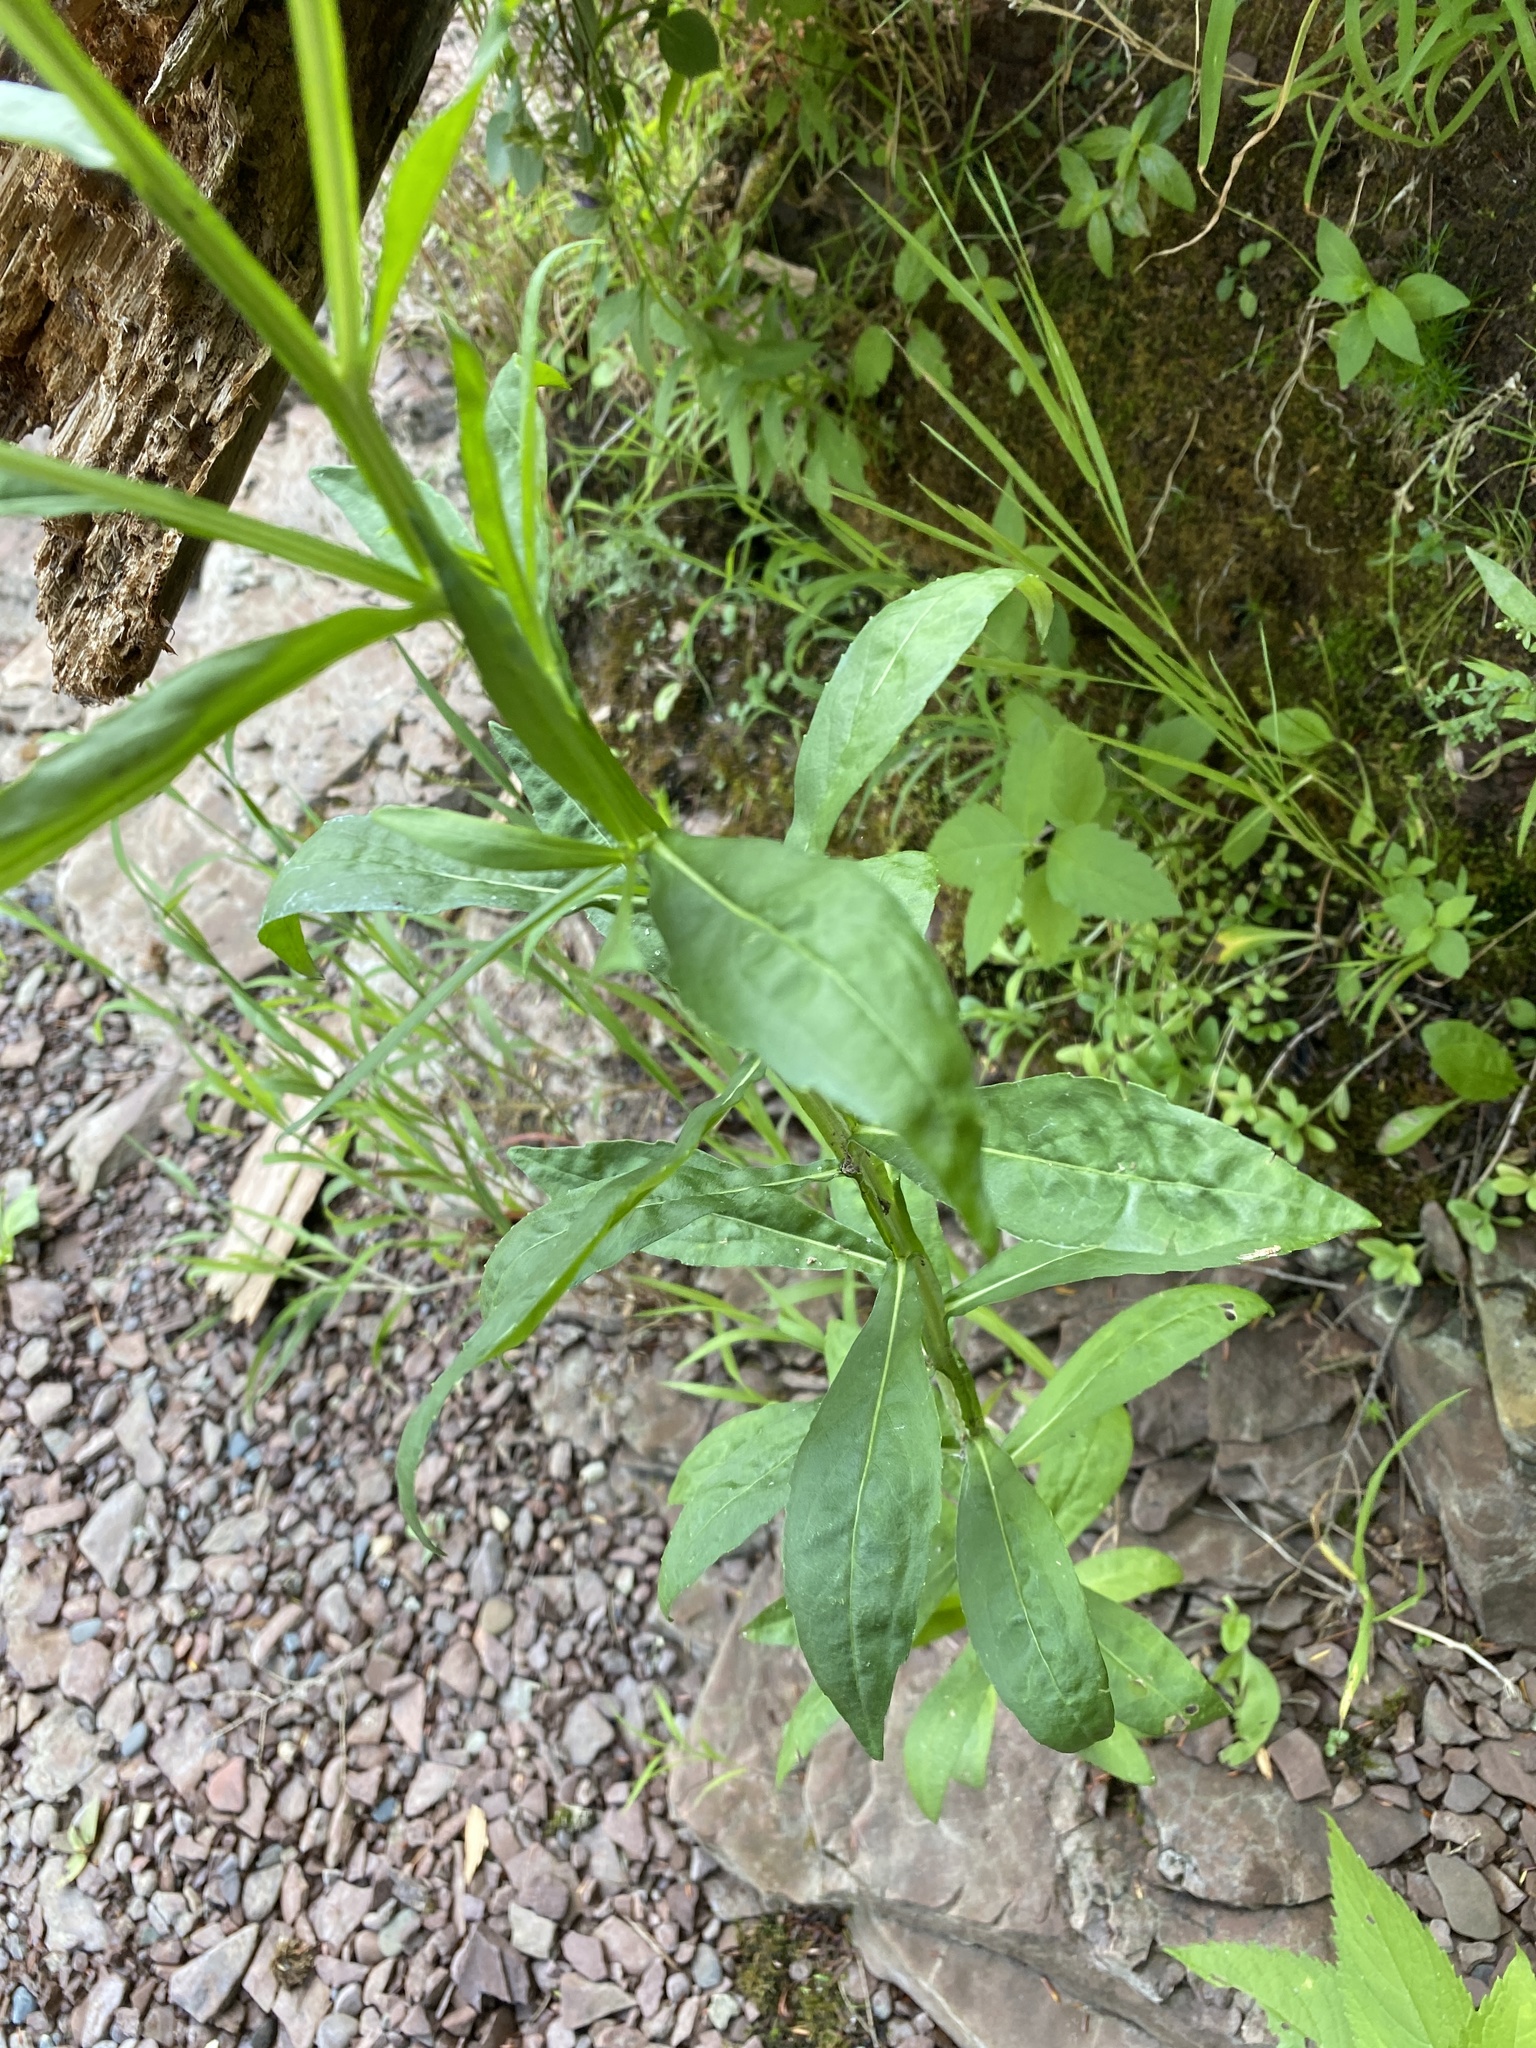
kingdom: Plantae
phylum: Tracheophyta
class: Magnoliopsida
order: Asterales
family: Asteraceae
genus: Helenium
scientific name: Helenium autumnale
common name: Sneezeweed
